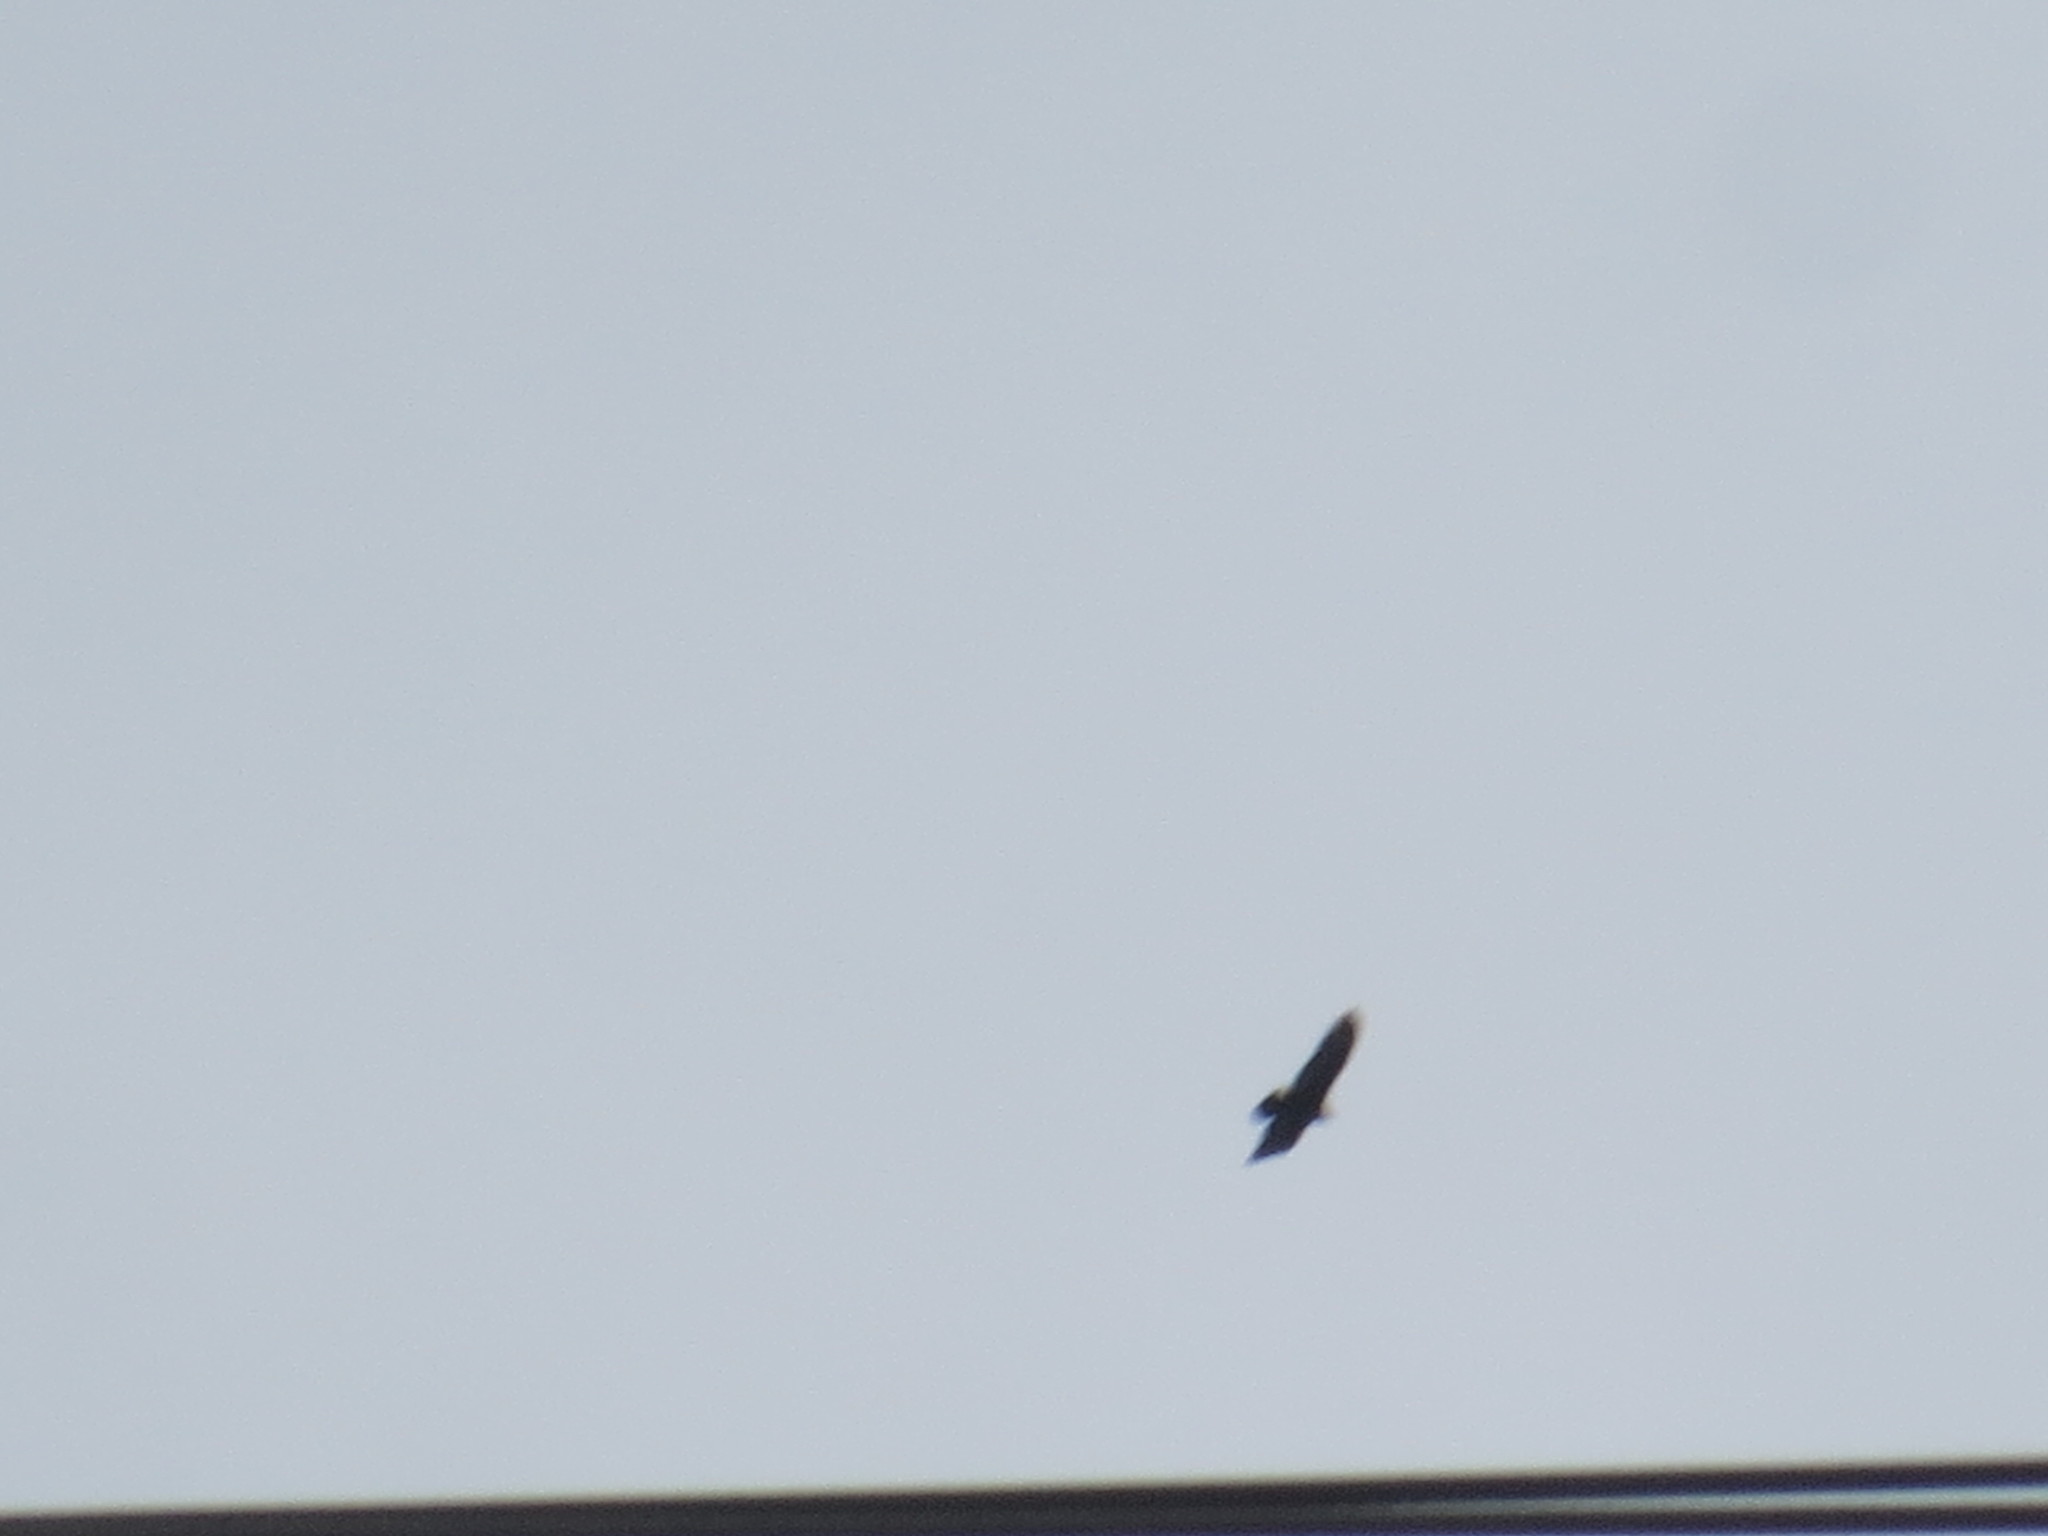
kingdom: Animalia
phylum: Chordata
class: Aves
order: Accipitriformes
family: Accipitridae
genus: Haliaeetus
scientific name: Haliaeetus leucocephalus
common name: Bald eagle
